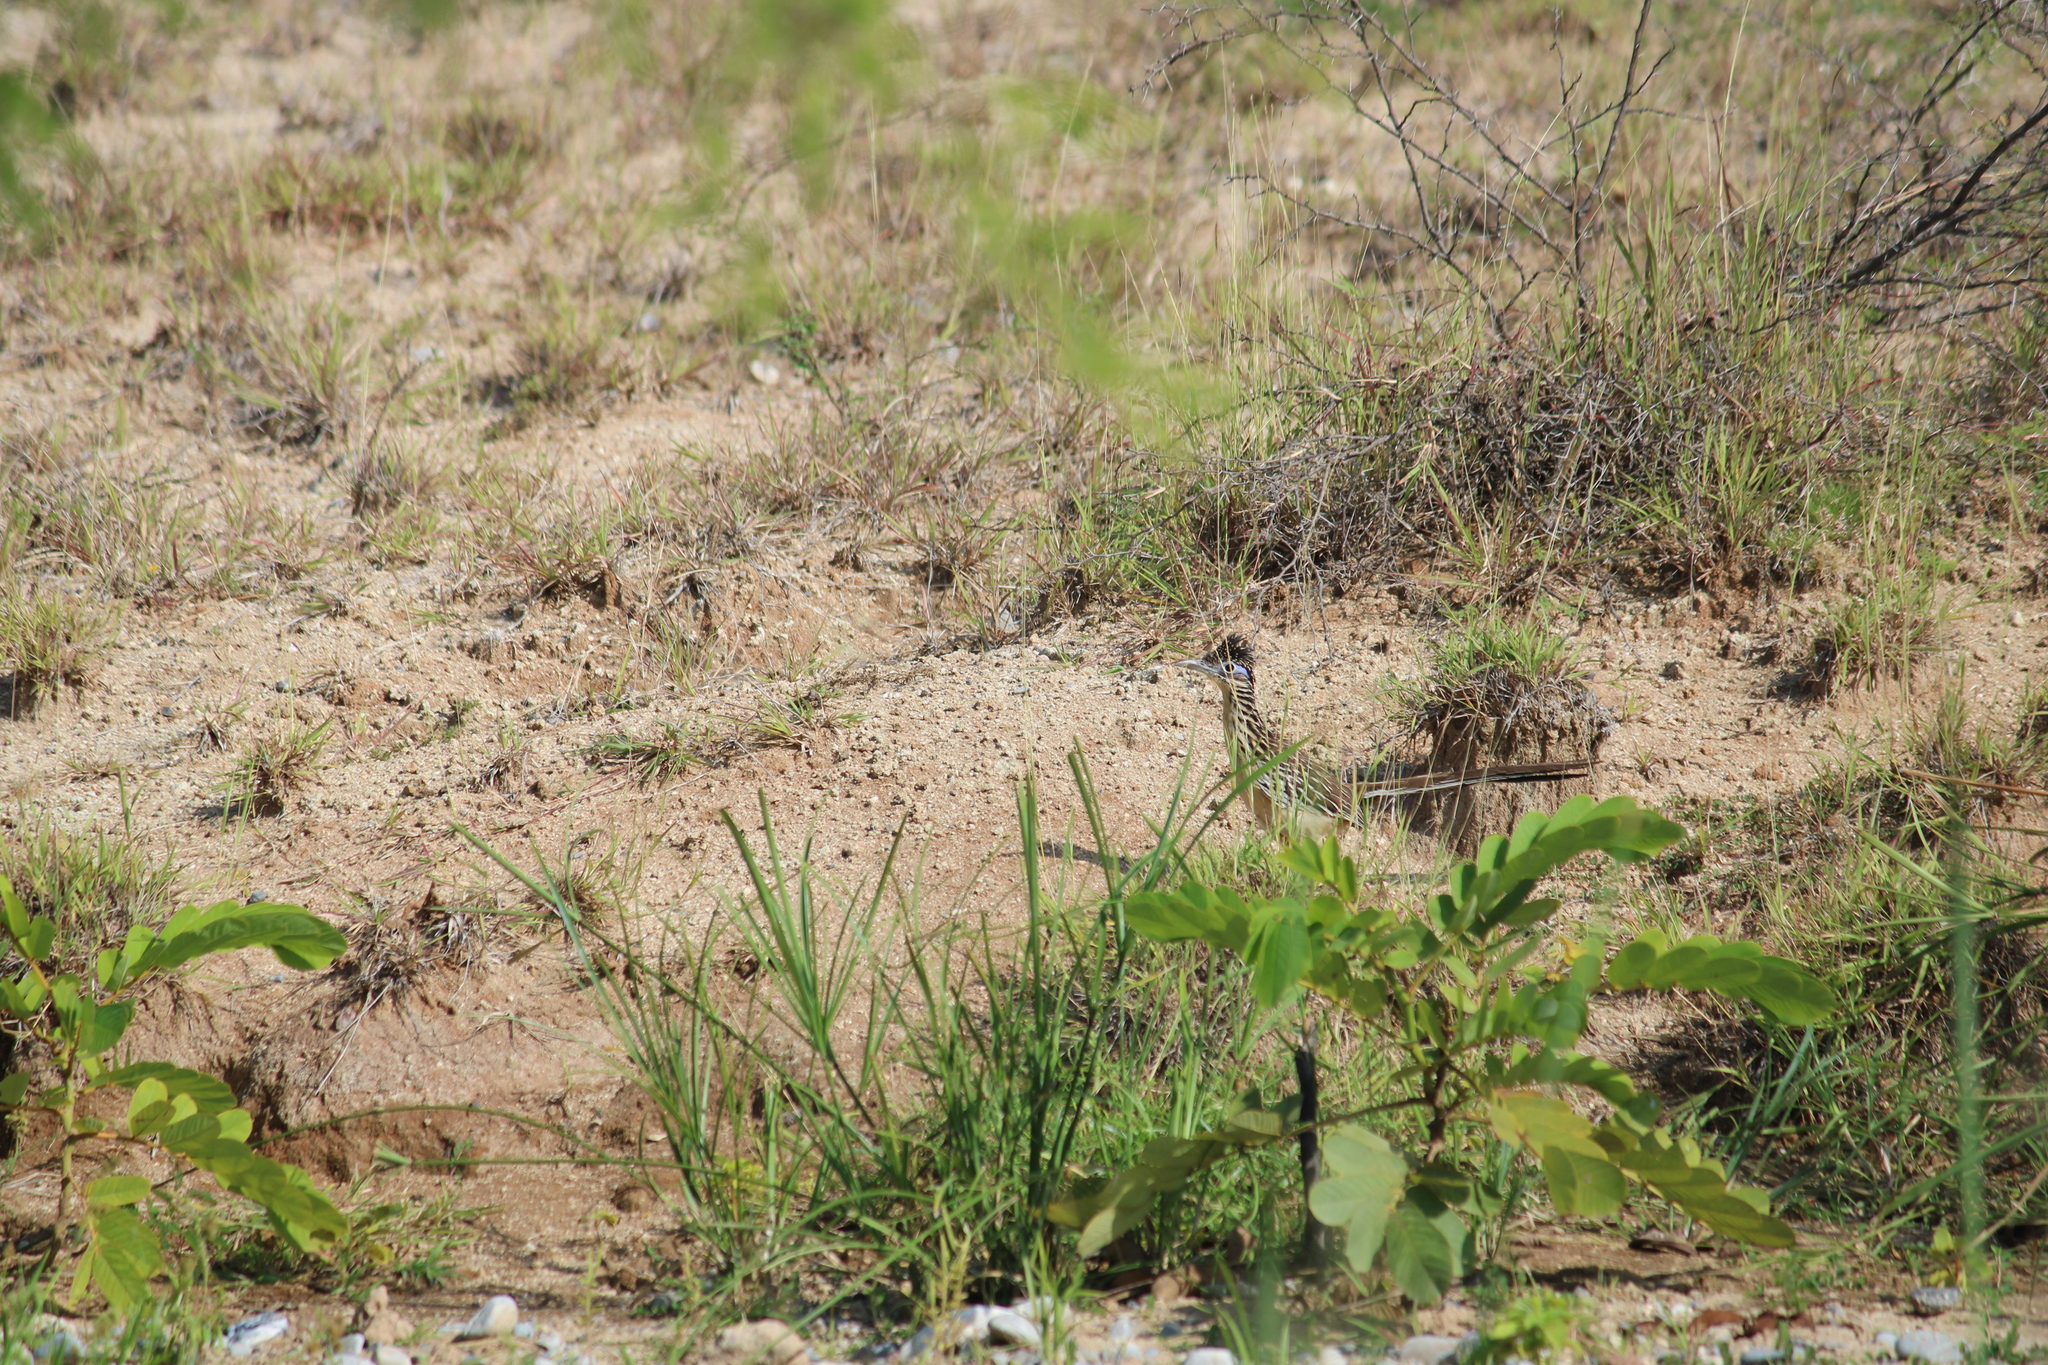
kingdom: Animalia
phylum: Chordata
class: Aves
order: Cuculiformes
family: Cuculidae
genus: Geococcyx
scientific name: Geococcyx velox
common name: Lesser roadrunner
